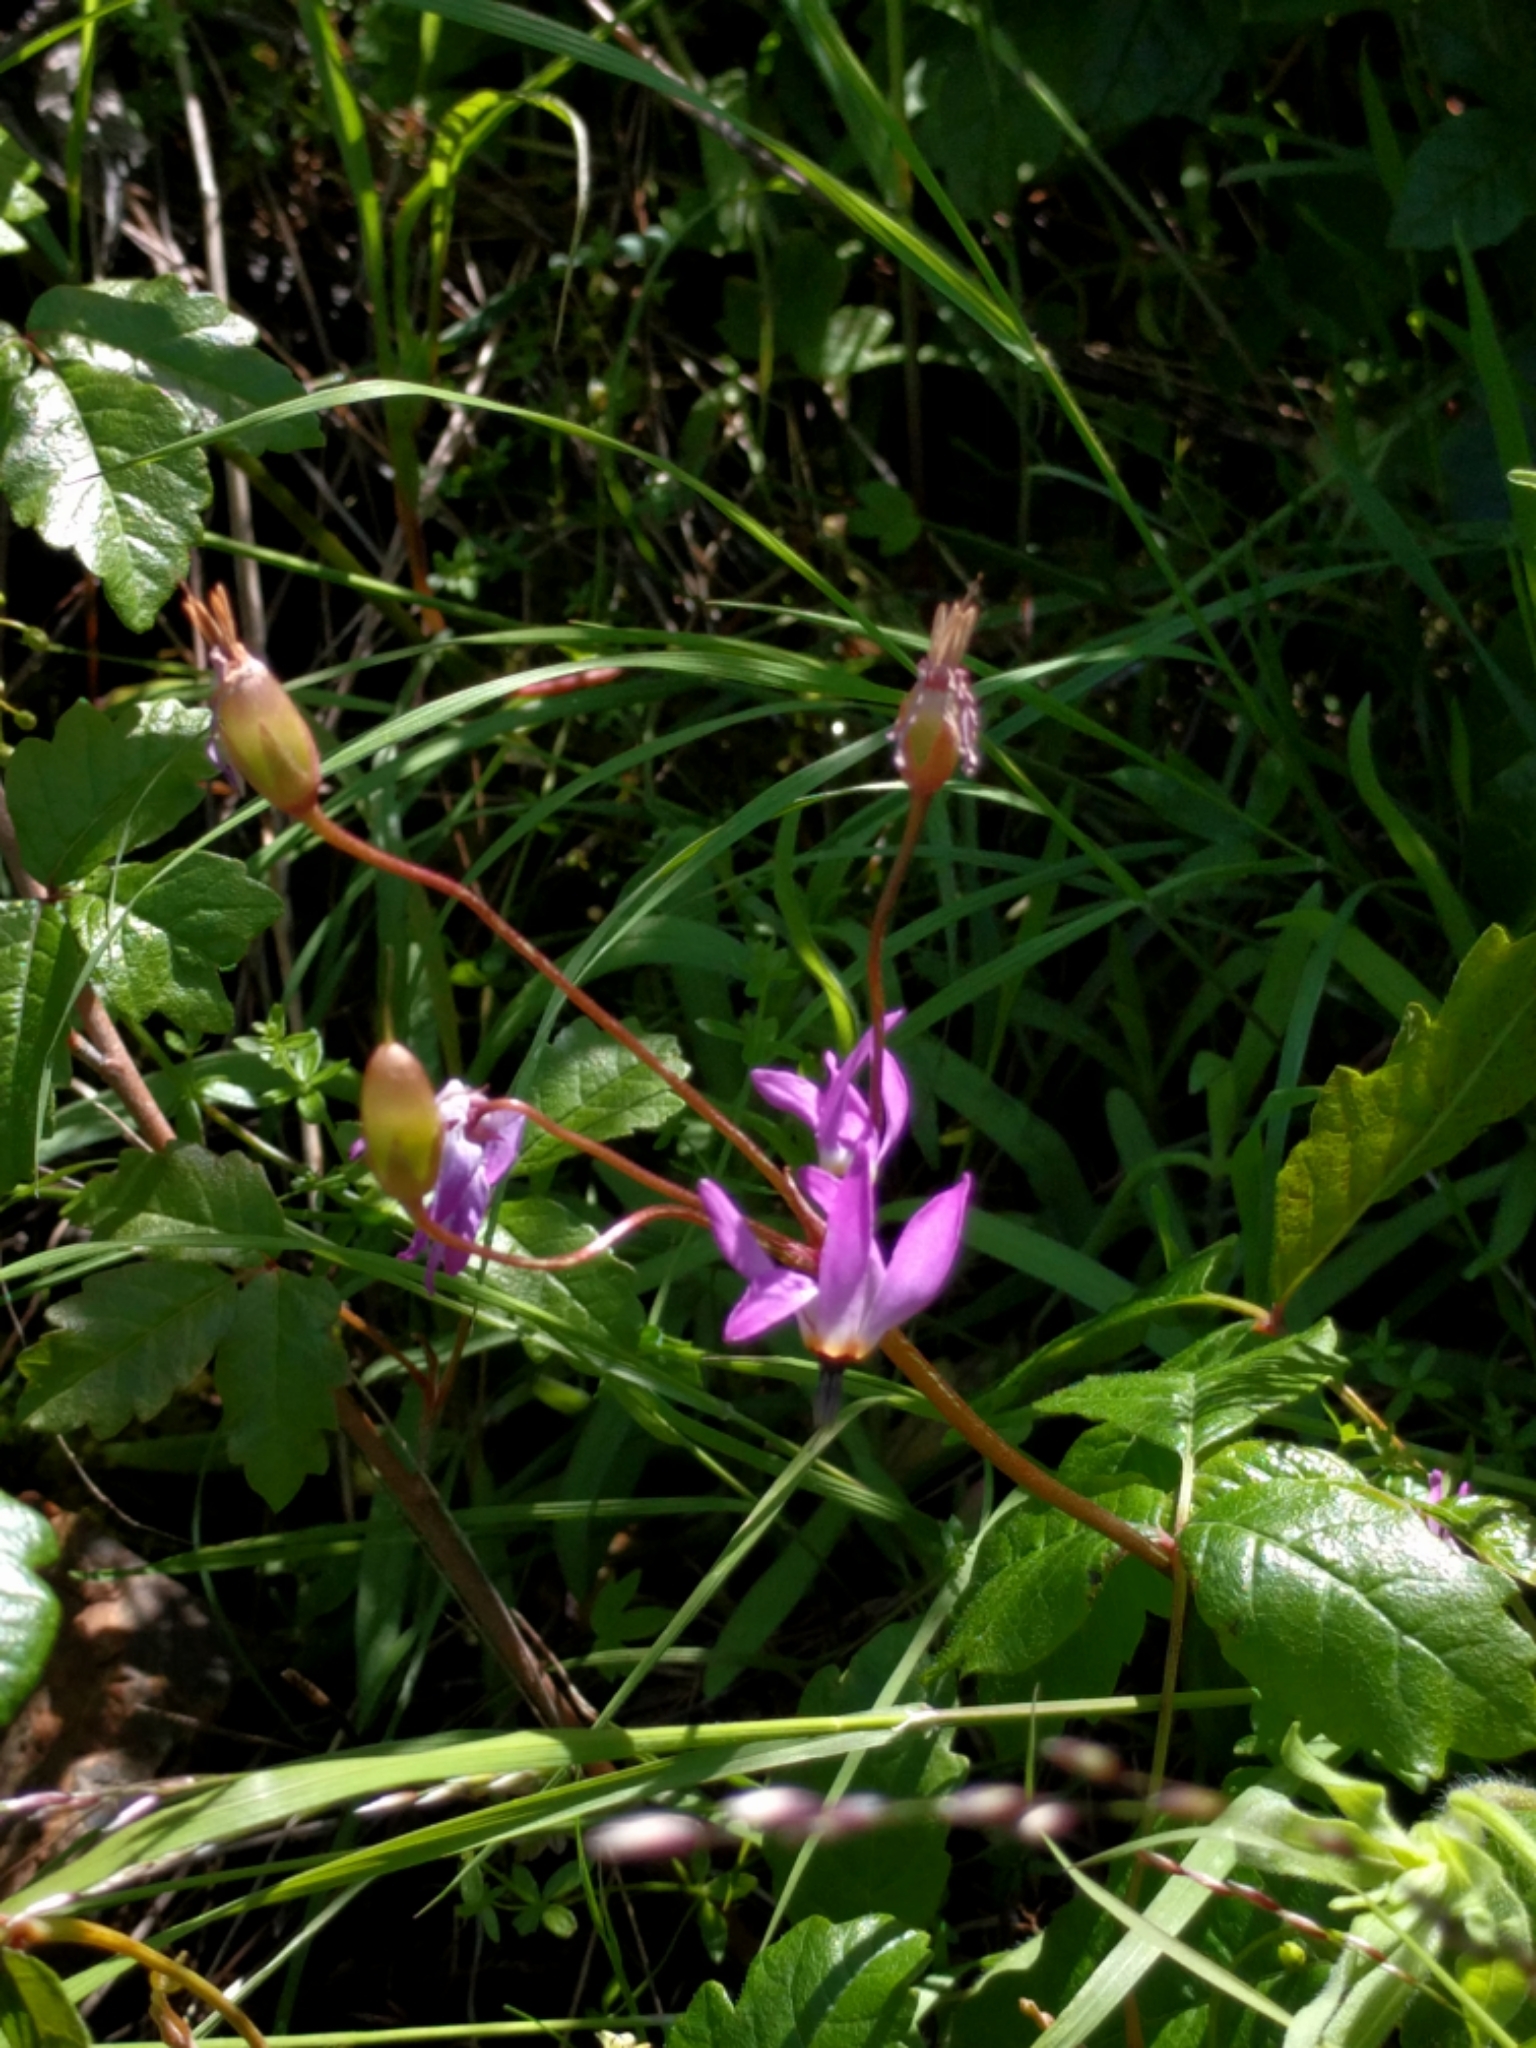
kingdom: Plantae
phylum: Tracheophyta
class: Magnoliopsida
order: Ericales
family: Primulaceae
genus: Dodecatheon
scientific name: Dodecatheon hendersonii
